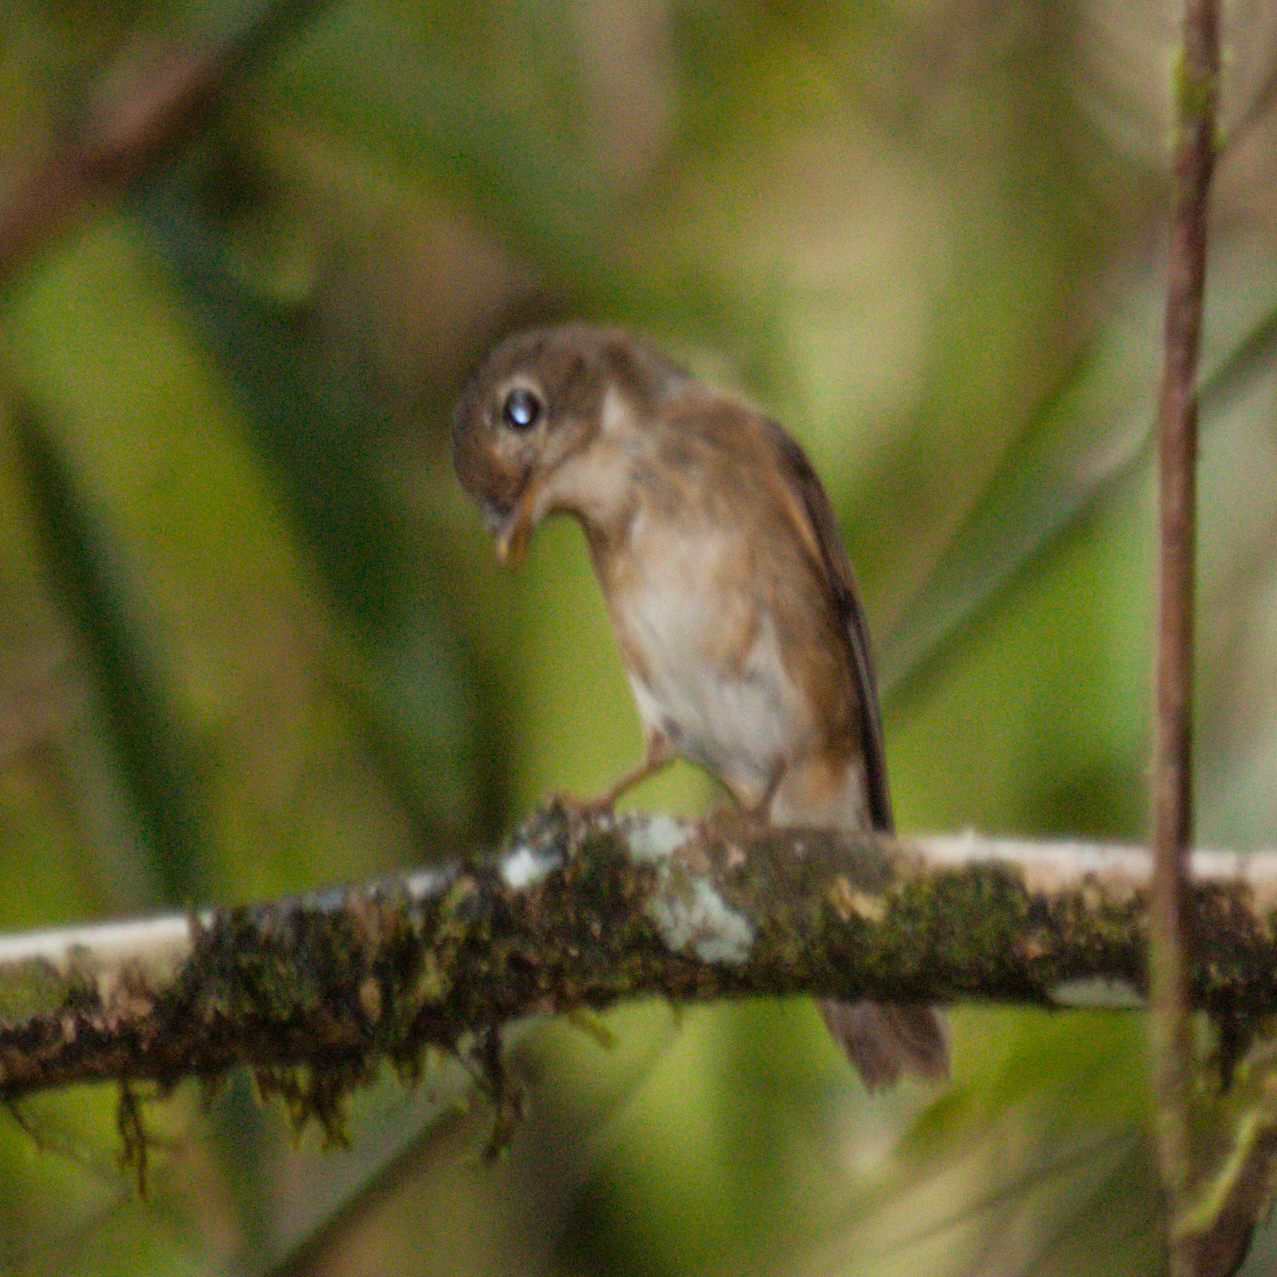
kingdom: Animalia
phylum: Chordata
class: Aves
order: Passeriformes
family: Muscicapidae
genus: Muscicapa
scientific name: Muscicapa muttui
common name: Brown-breasted flycatcher
